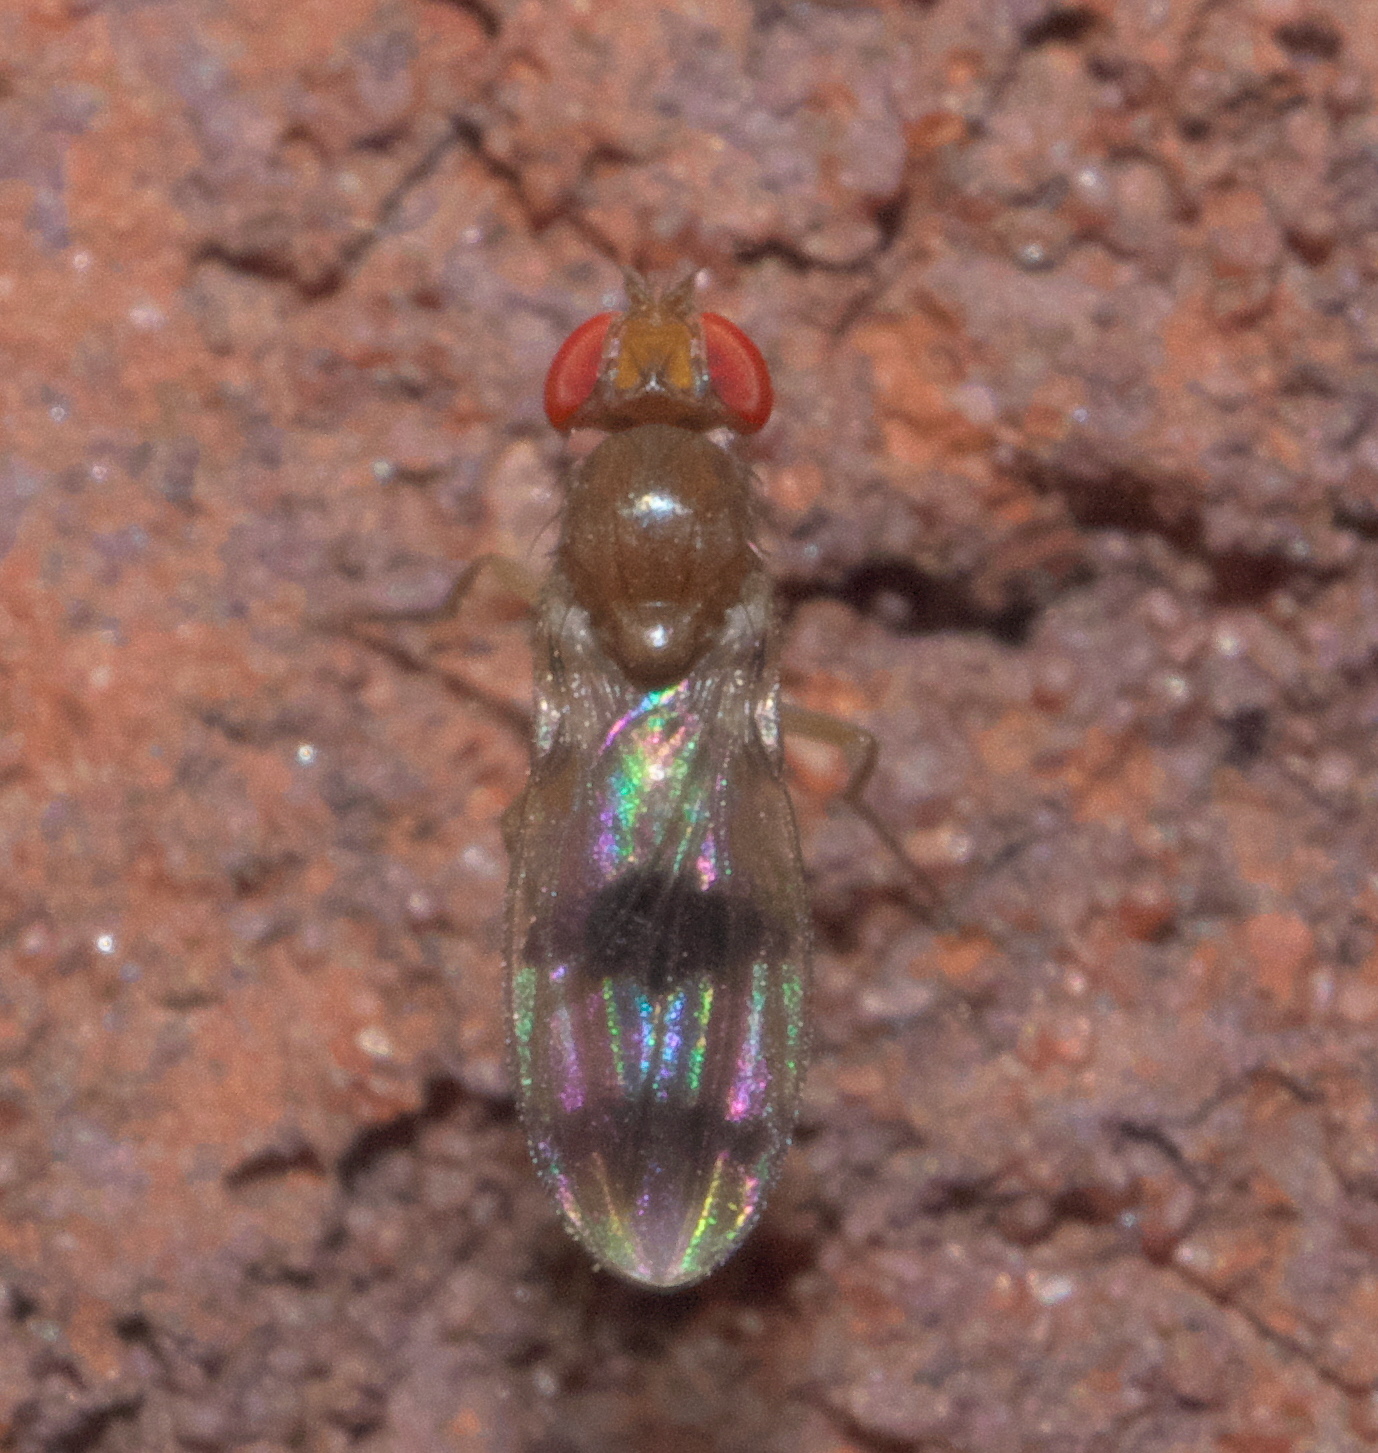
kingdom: Animalia
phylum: Arthropoda
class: Insecta
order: Diptera
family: Drosophilidae
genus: Chymomyza
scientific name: Chymomyza amoena
